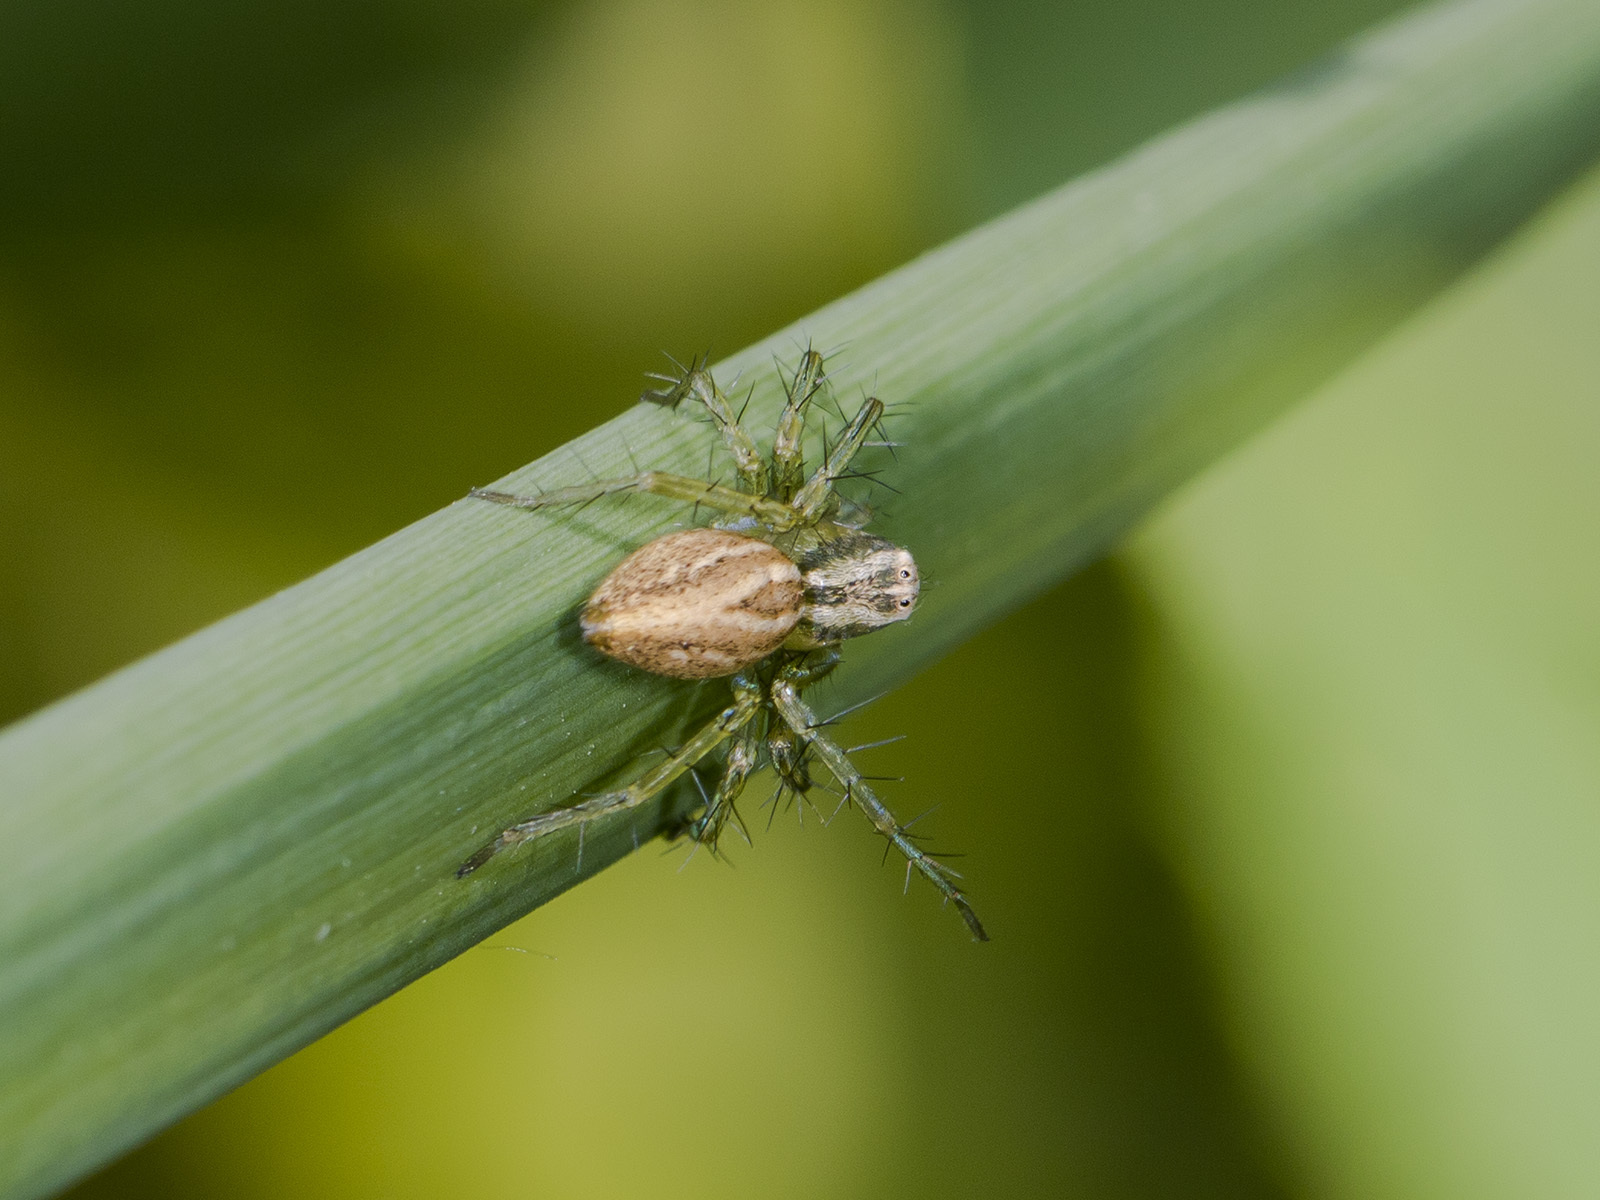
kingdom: Animalia
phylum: Arthropoda
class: Arachnida
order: Araneae
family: Oxyopidae
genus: Oxyopes
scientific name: Oxyopes lineatus
